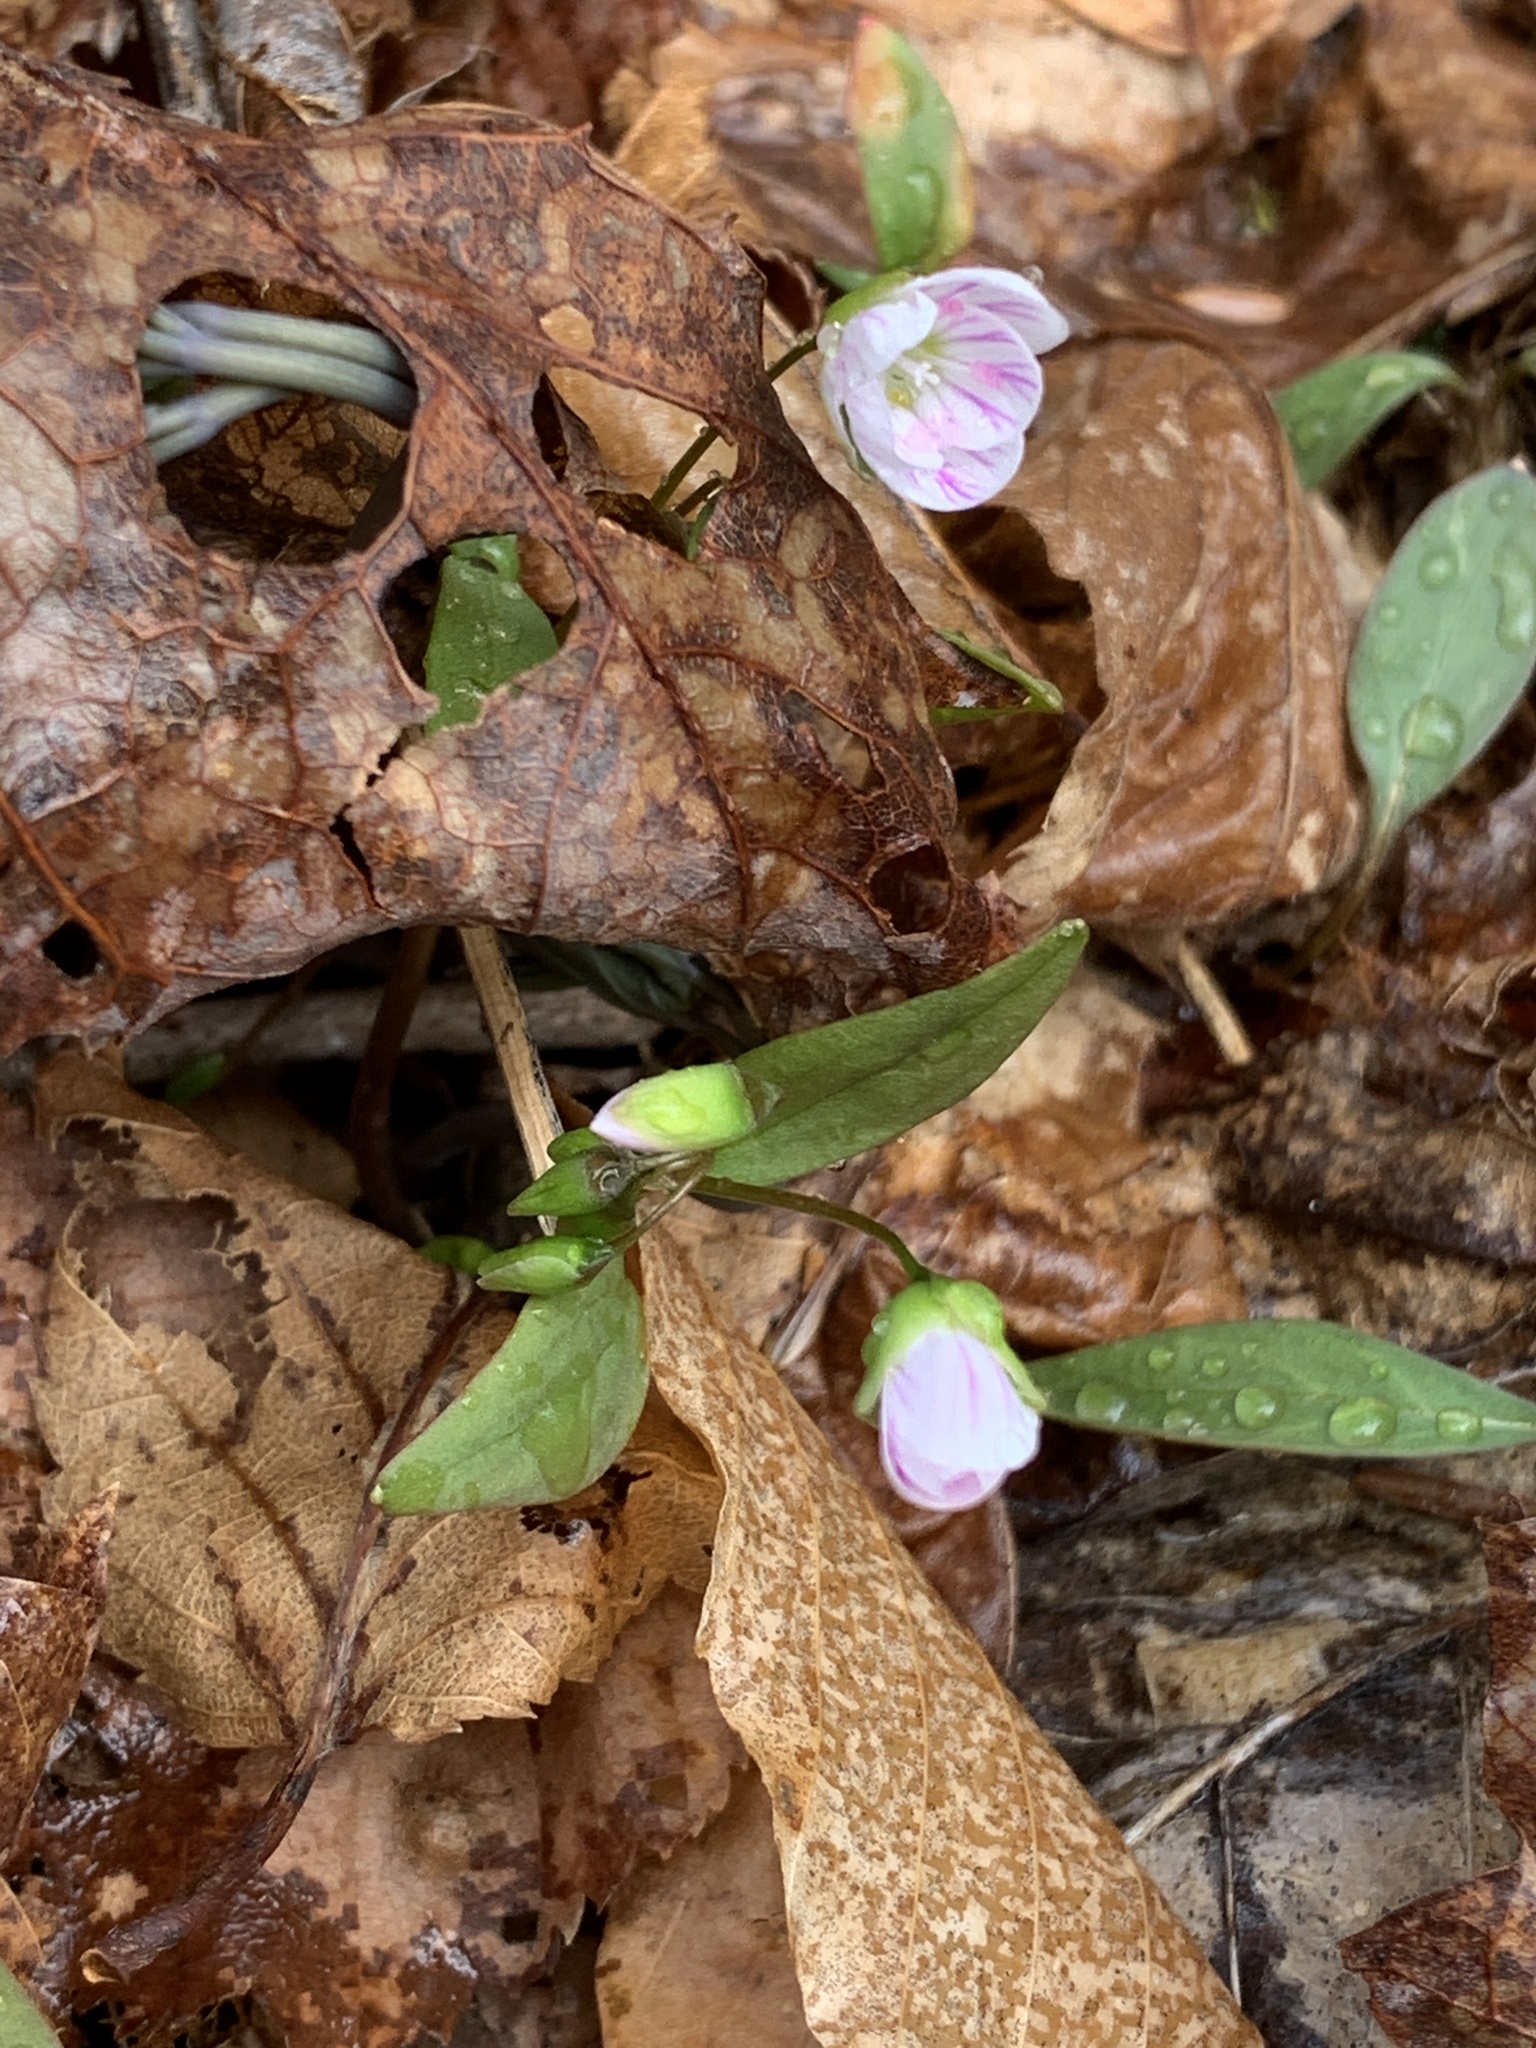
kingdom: Plantae
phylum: Tracheophyta
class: Magnoliopsida
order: Caryophyllales
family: Montiaceae
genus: Claytonia
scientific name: Claytonia caroliniana
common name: Carolina spring beauty
